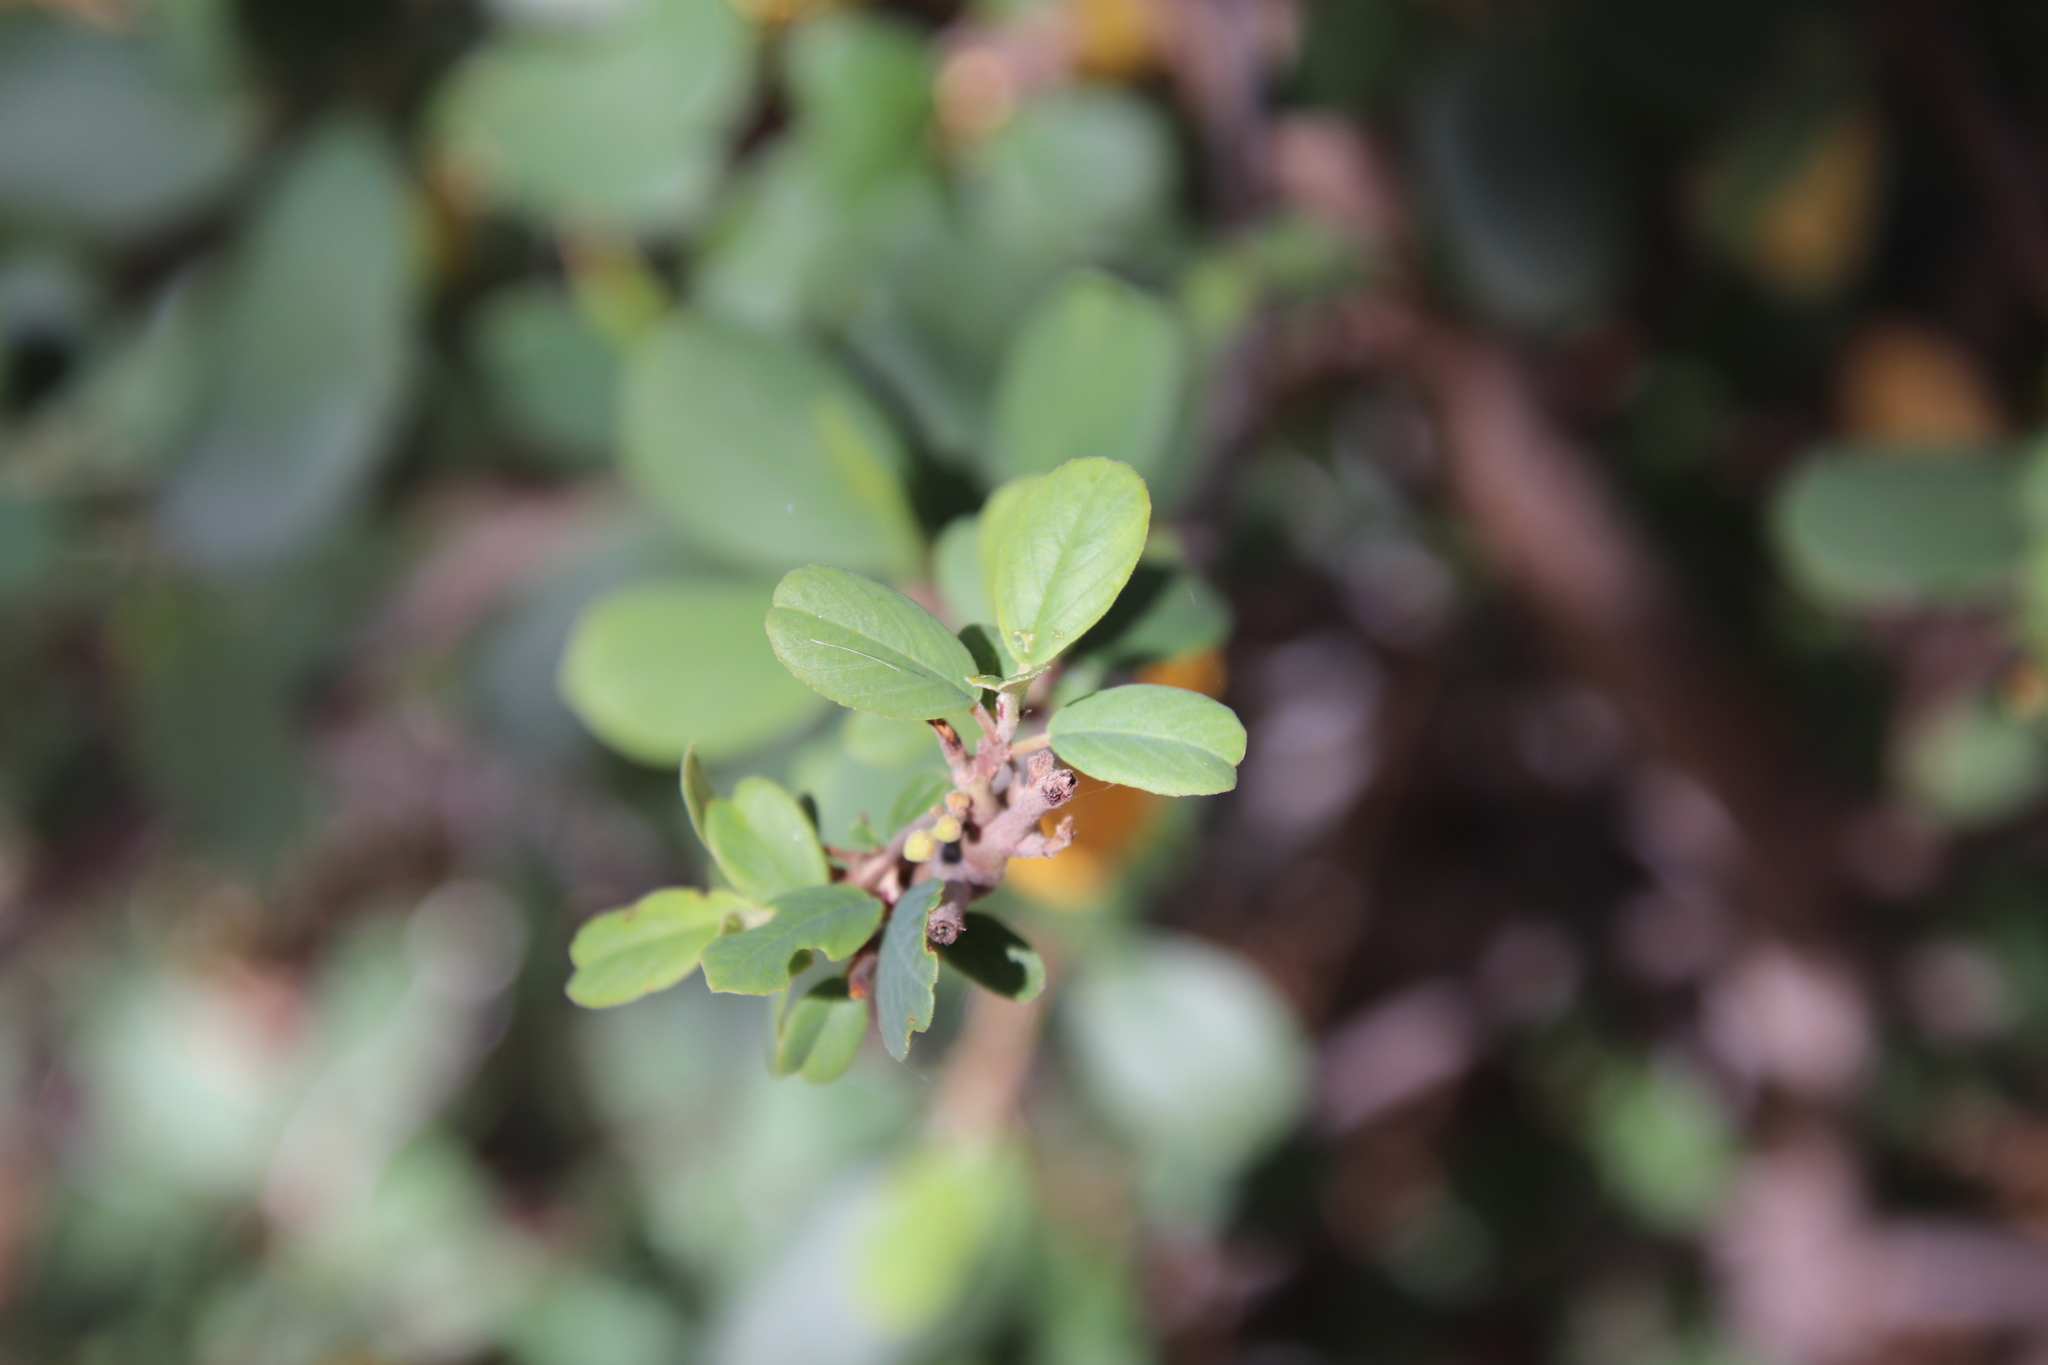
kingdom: Plantae
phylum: Tracheophyta
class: Magnoliopsida
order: Rosales
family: Rhamnaceae
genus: Frangula
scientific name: Frangula californica
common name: California buckthorn
